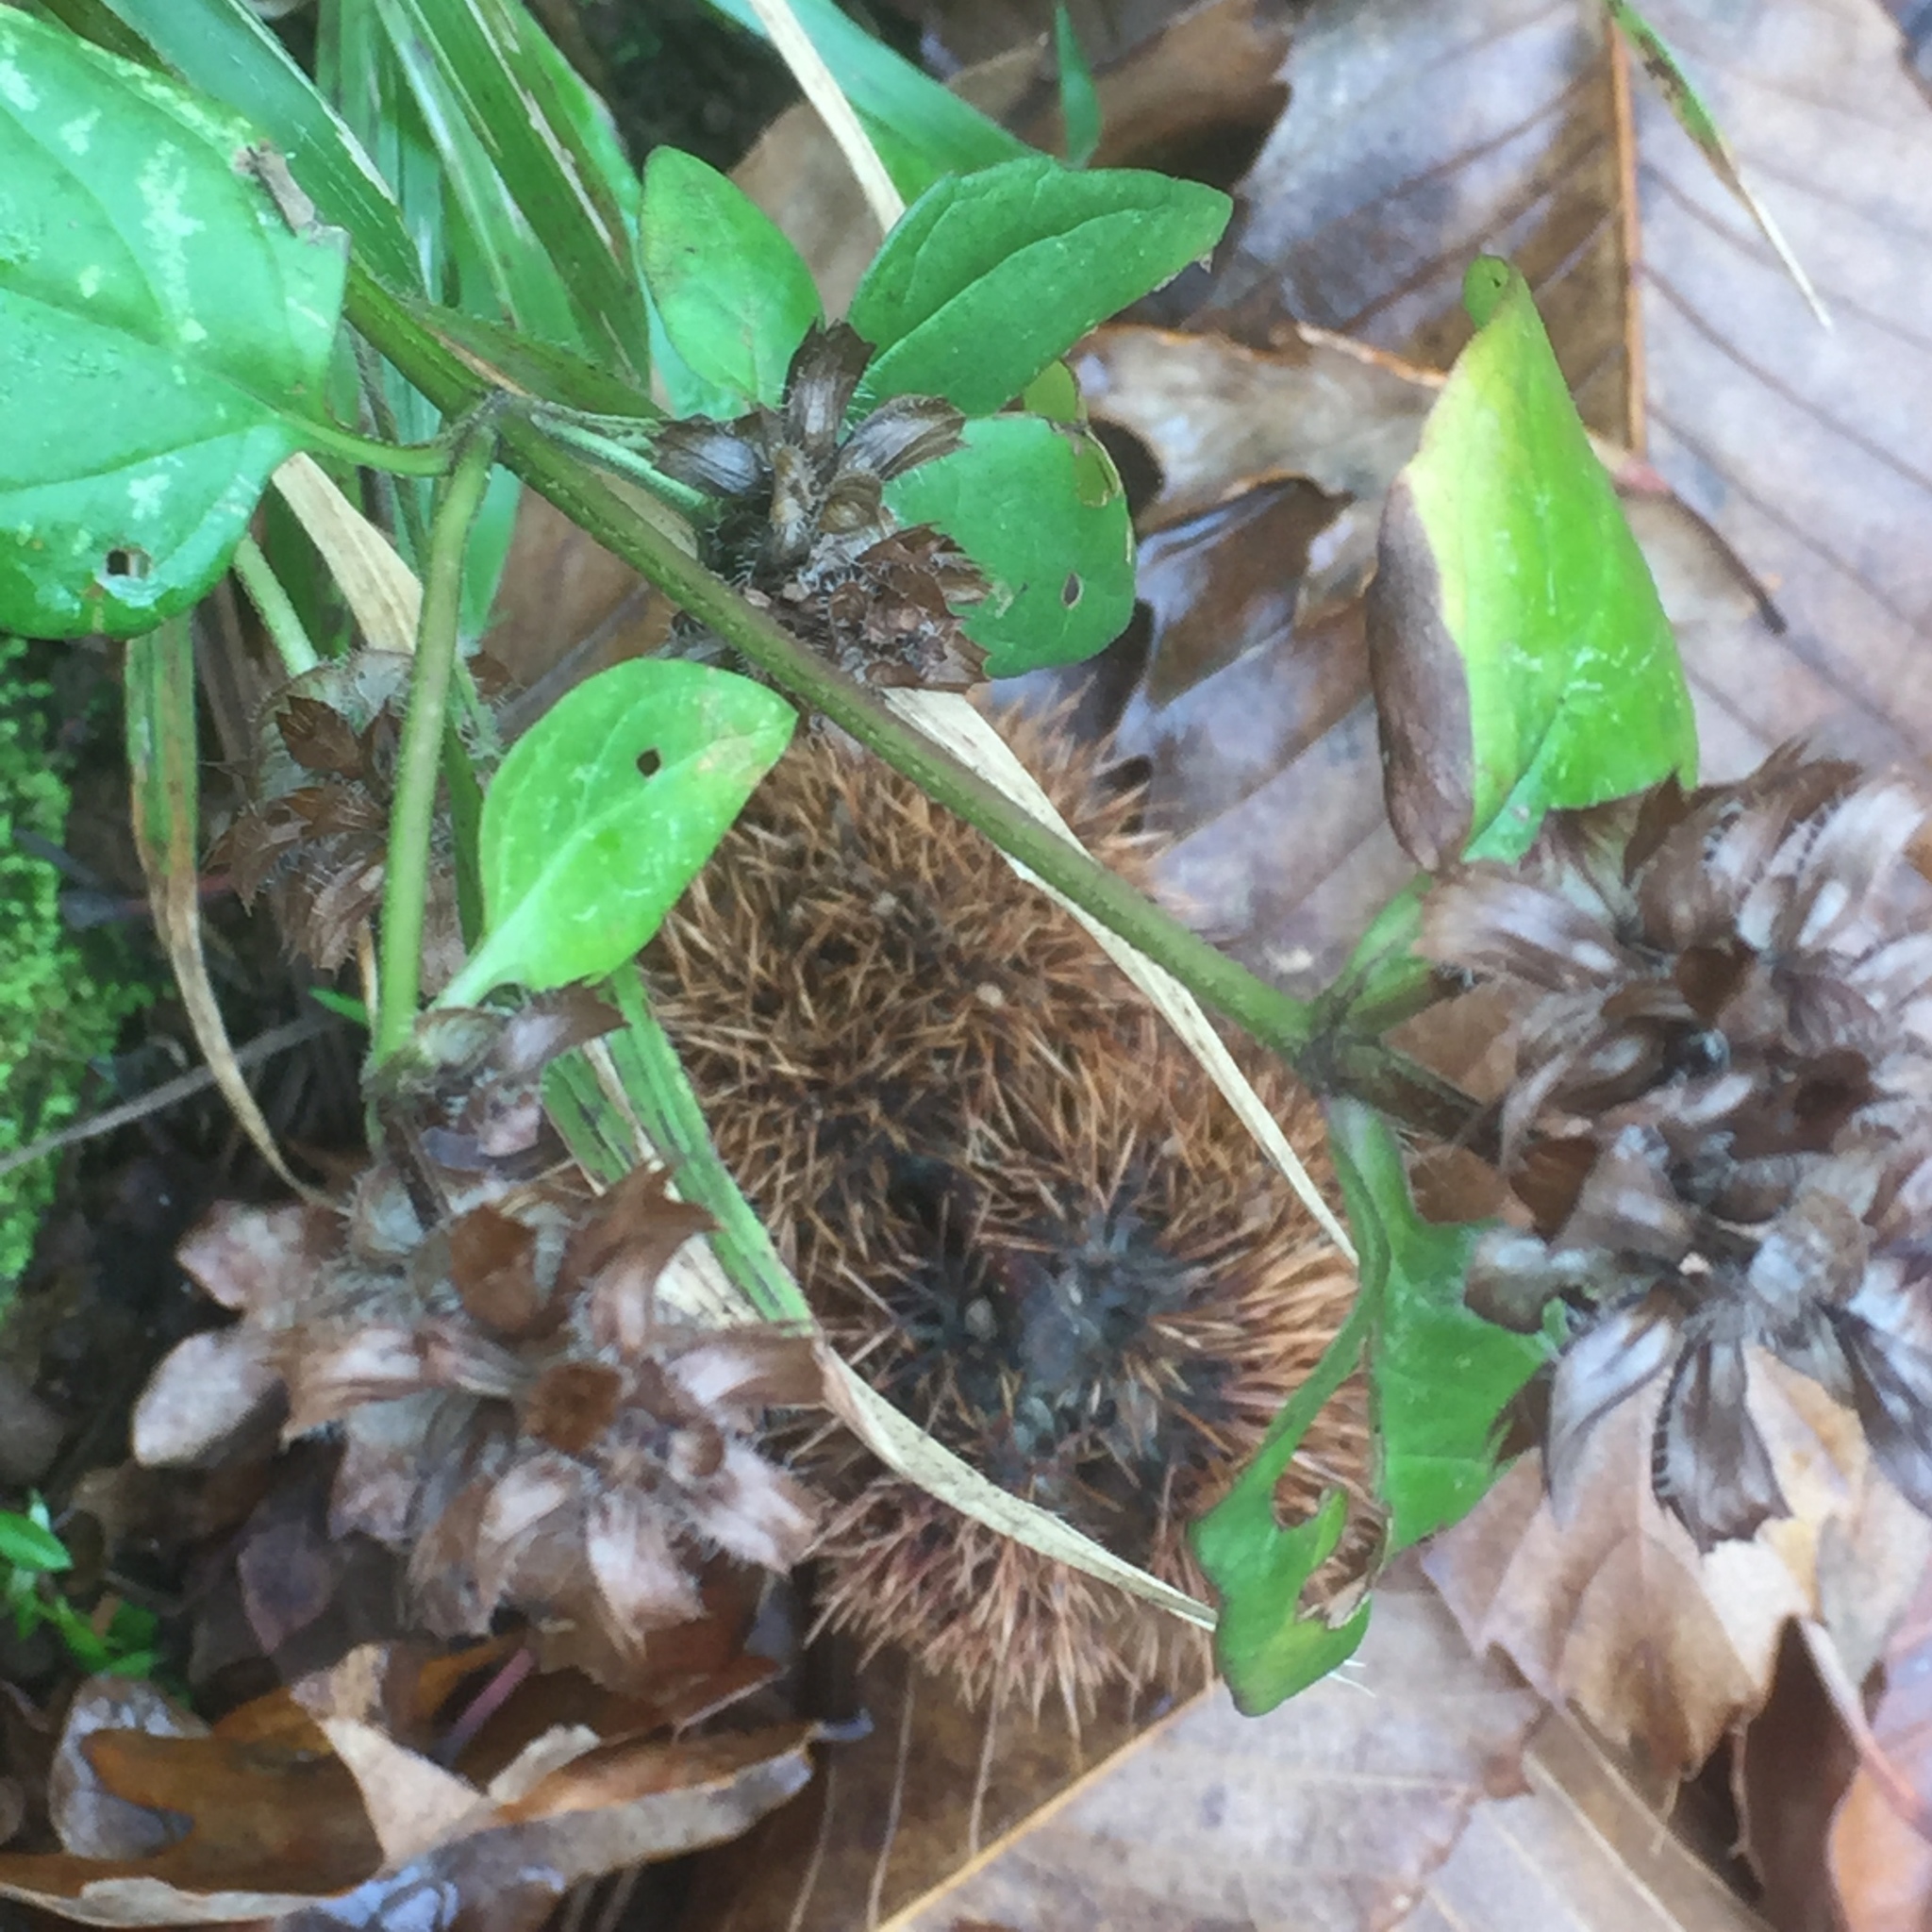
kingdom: Plantae
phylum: Tracheophyta
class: Magnoliopsida
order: Fagales
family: Fagaceae
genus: Castanea
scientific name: Castanea sativa
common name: Sweet chestnut
